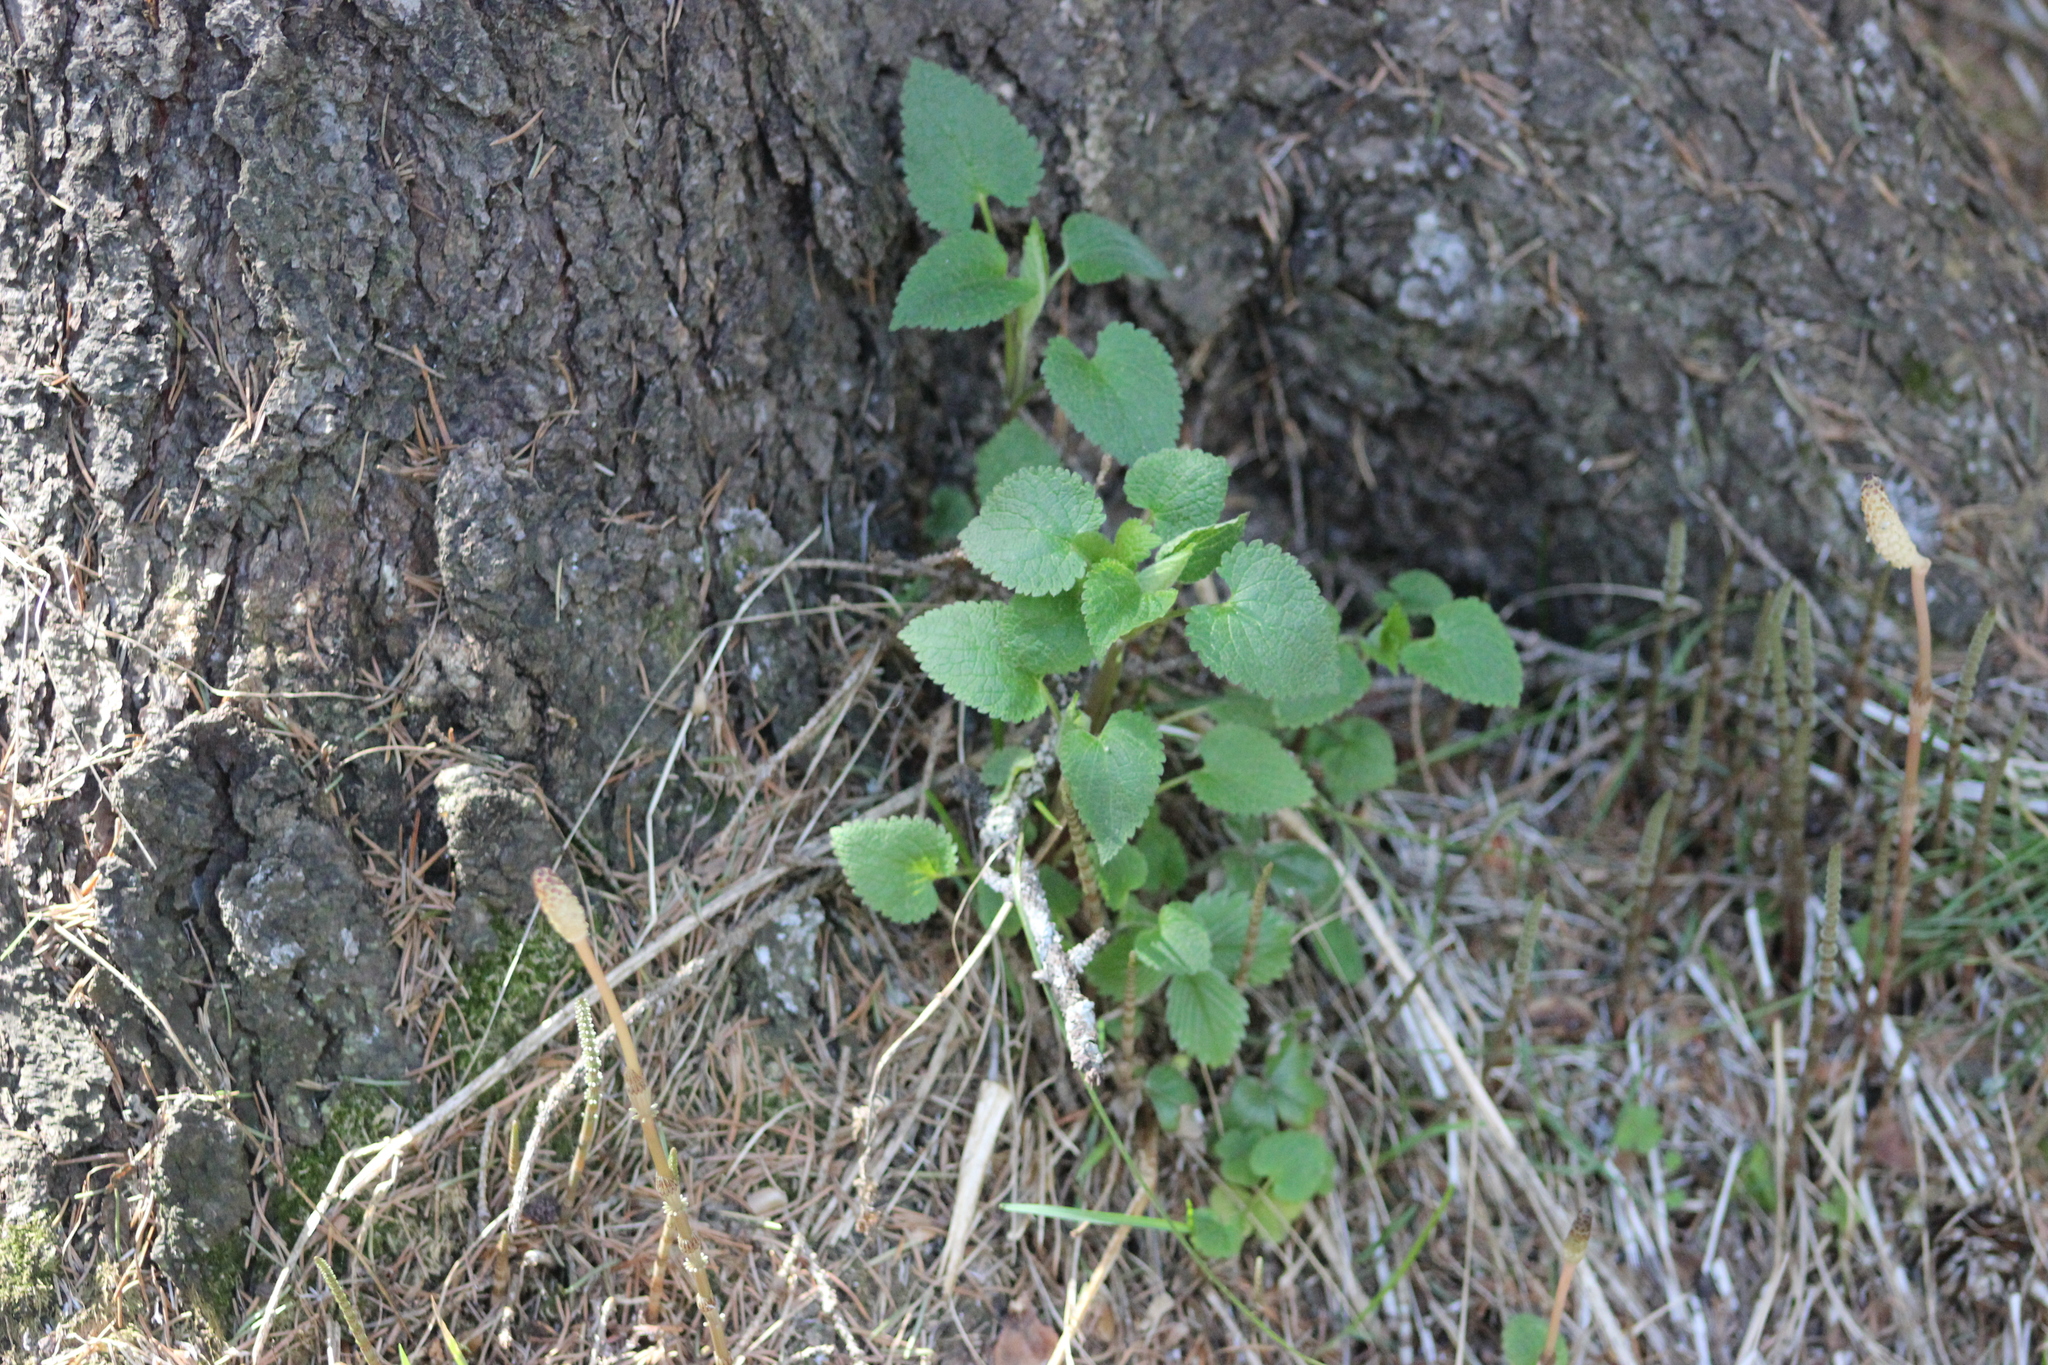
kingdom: Plantae
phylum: Tracheophyta
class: Magnoliopsida
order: Lamiales
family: Lamiaceae
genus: Lamium
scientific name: Lamium album
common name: White dead-nettle
